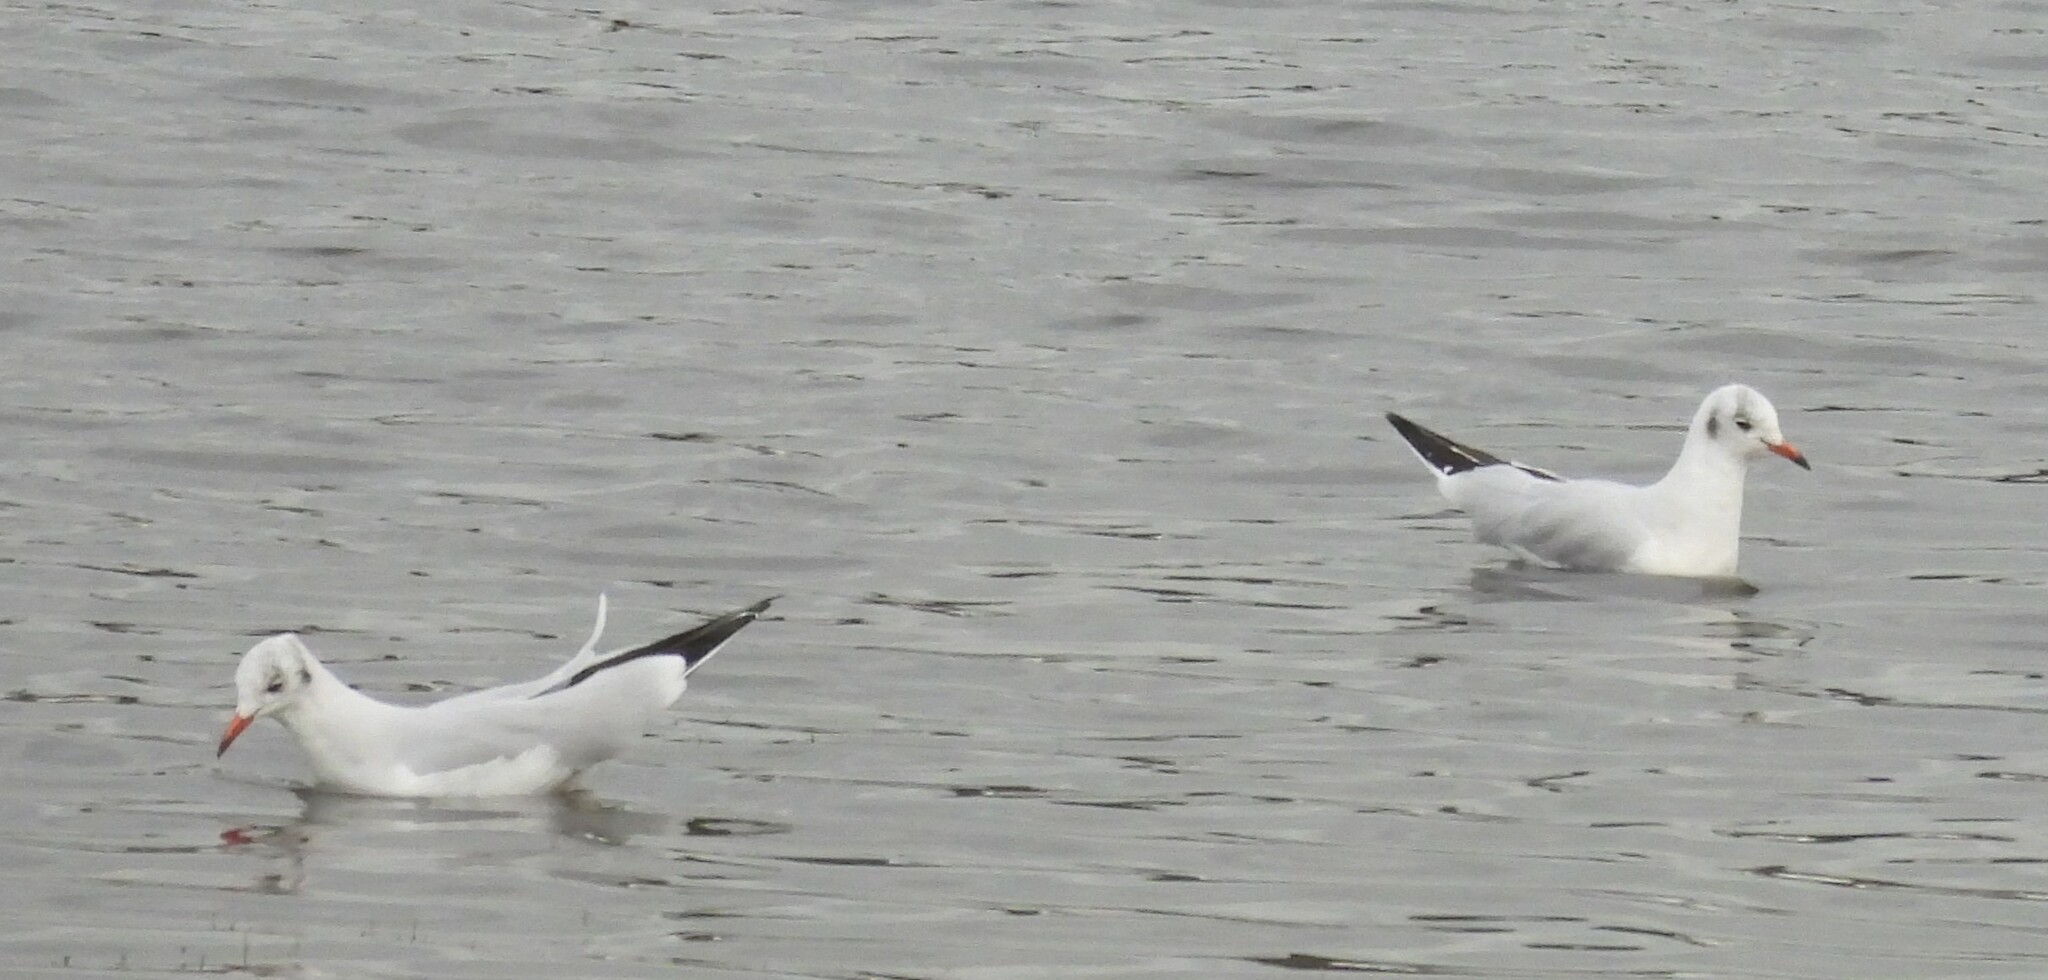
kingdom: Animalia
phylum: Chordata
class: Aves
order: Charadriiformes
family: Laridae
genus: Chroicocephalus
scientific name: Chroicocephalus ridibundus
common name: Black-headed gull
